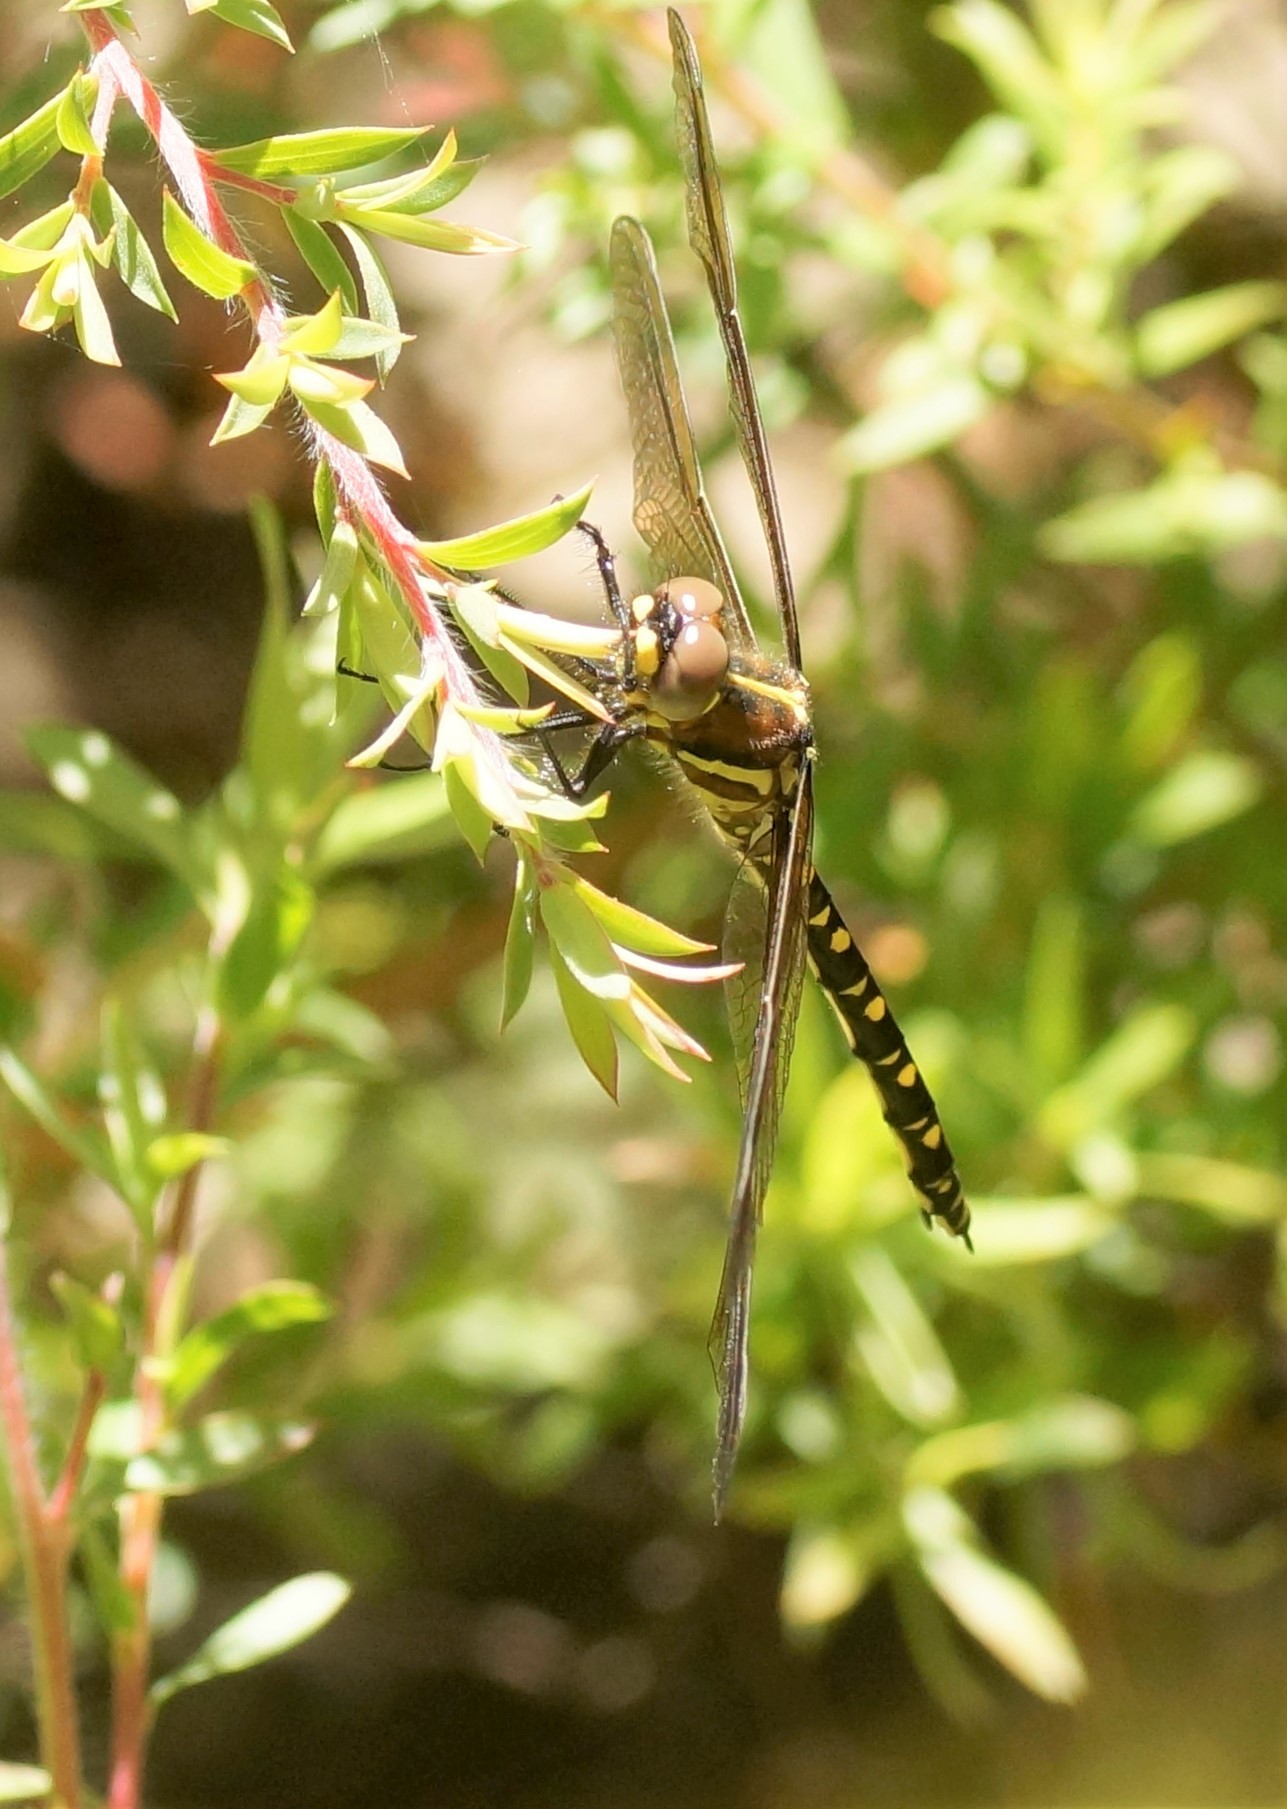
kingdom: Animalia
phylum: Arthropoda
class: Insecta
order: Odonata
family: Synthemistidae
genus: Synthemis
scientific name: Synthemis eustalacta
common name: Swamp tigertail
